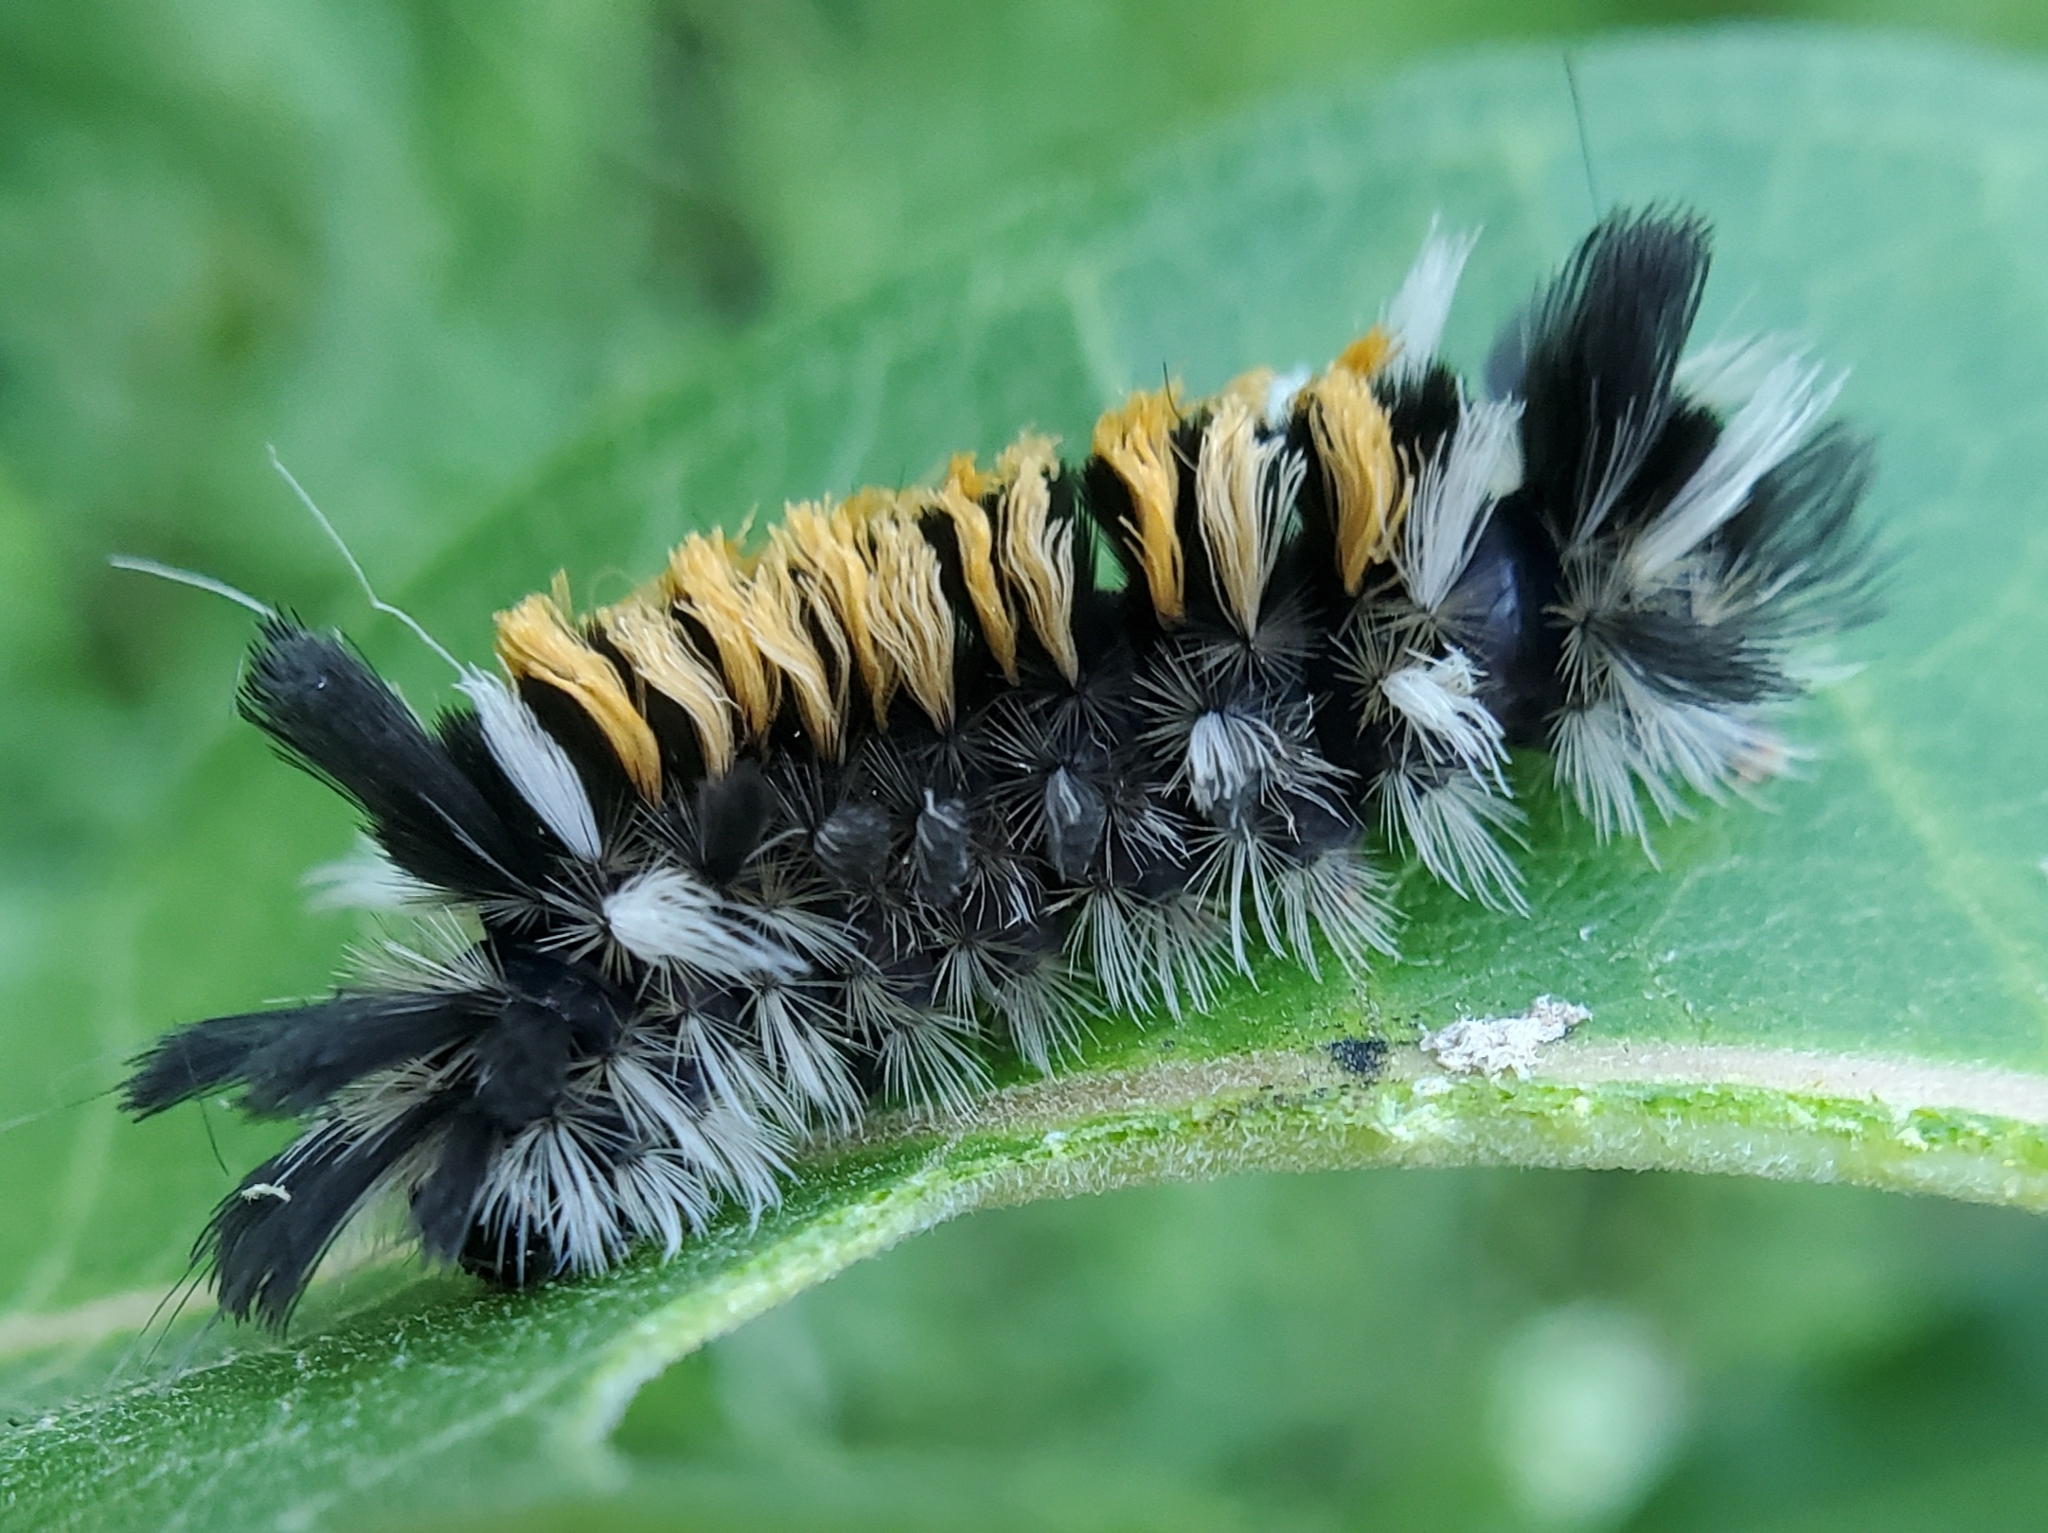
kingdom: Animalia
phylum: Arthropoda
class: Insecta
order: Lepidoptera
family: Erebidae
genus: Euchaetes
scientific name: Euchaetes egle
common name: Milkweed tussock moth
